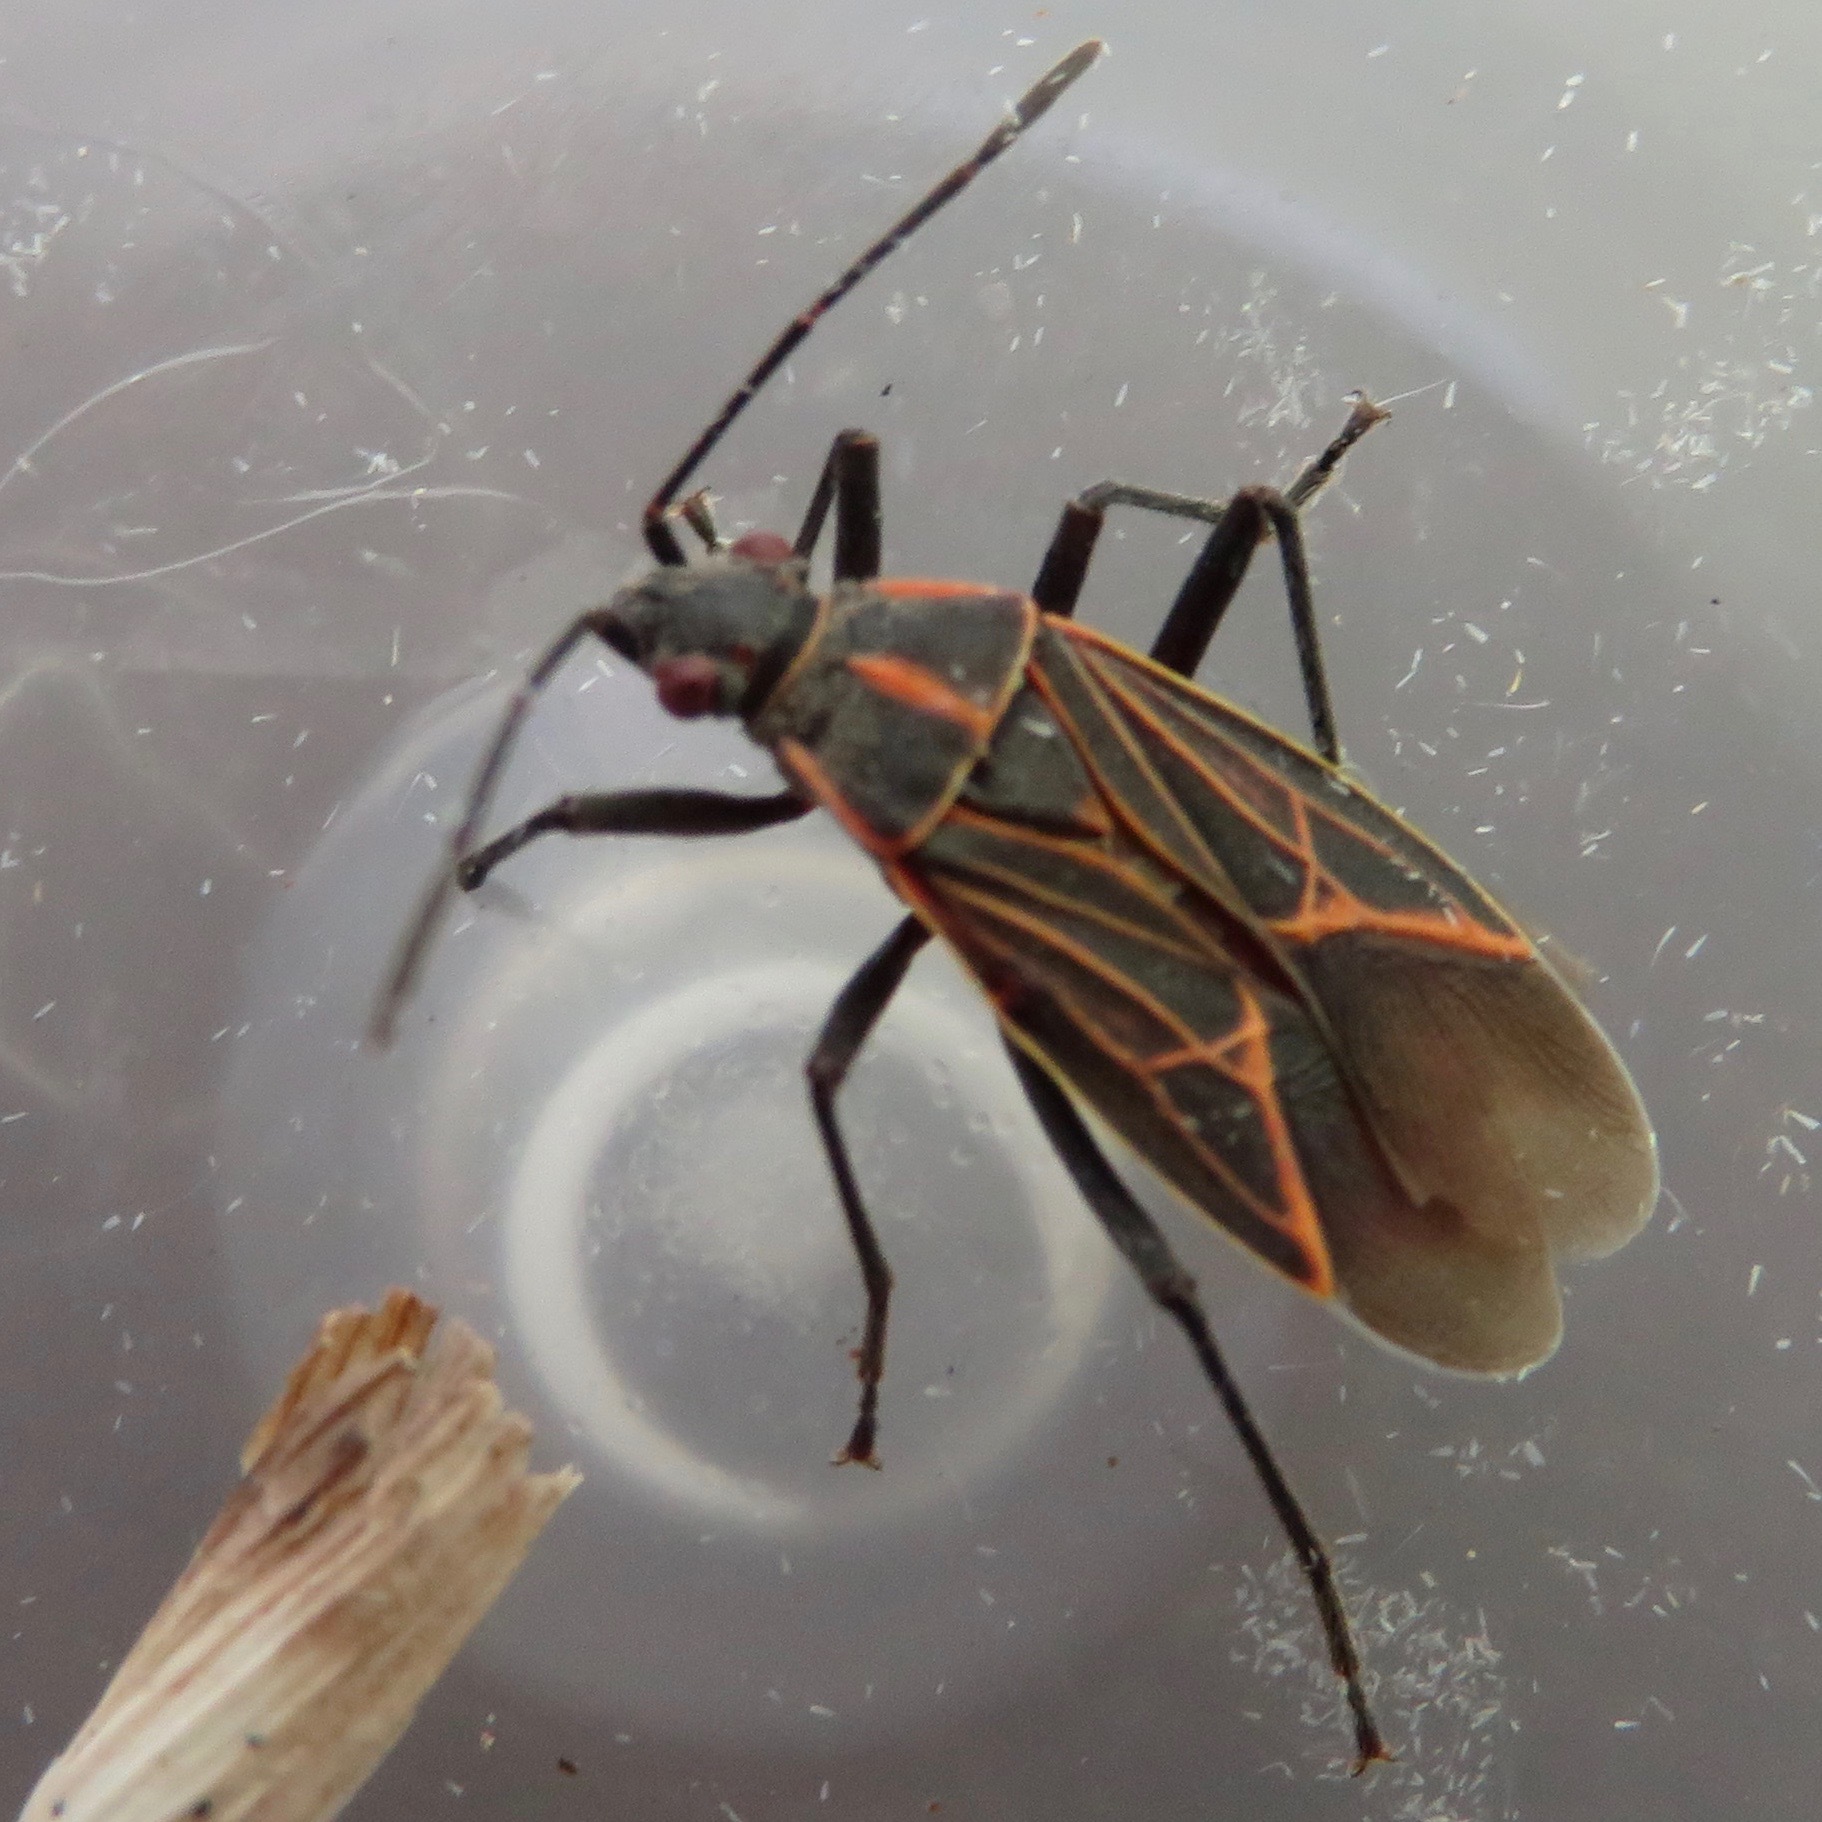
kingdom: Animalia
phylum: Arthropoda
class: Insecta
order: Hemiptera
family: Rhopalidae
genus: Boisea
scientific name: Boisea rubrolineata
